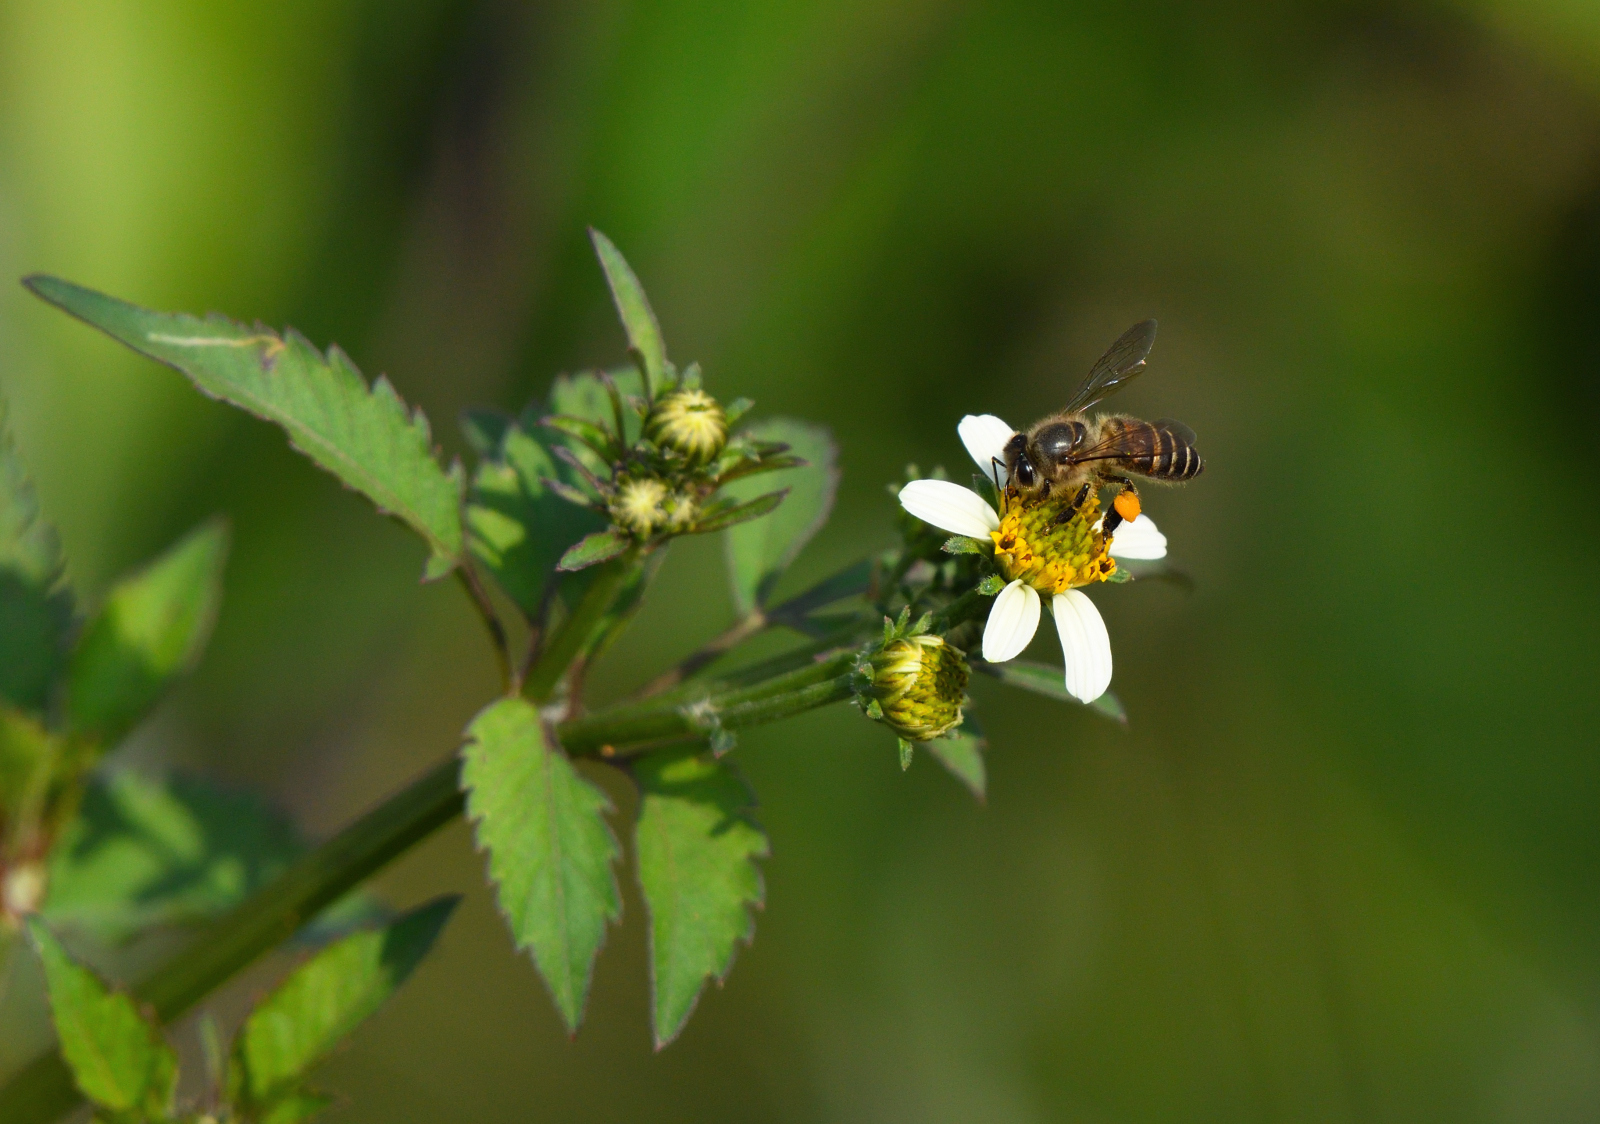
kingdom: Animalia
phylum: Arthropoda
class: Insecta
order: Hymenoptera
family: Apidae
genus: Apis
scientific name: Apis cerana
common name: Honey bee
